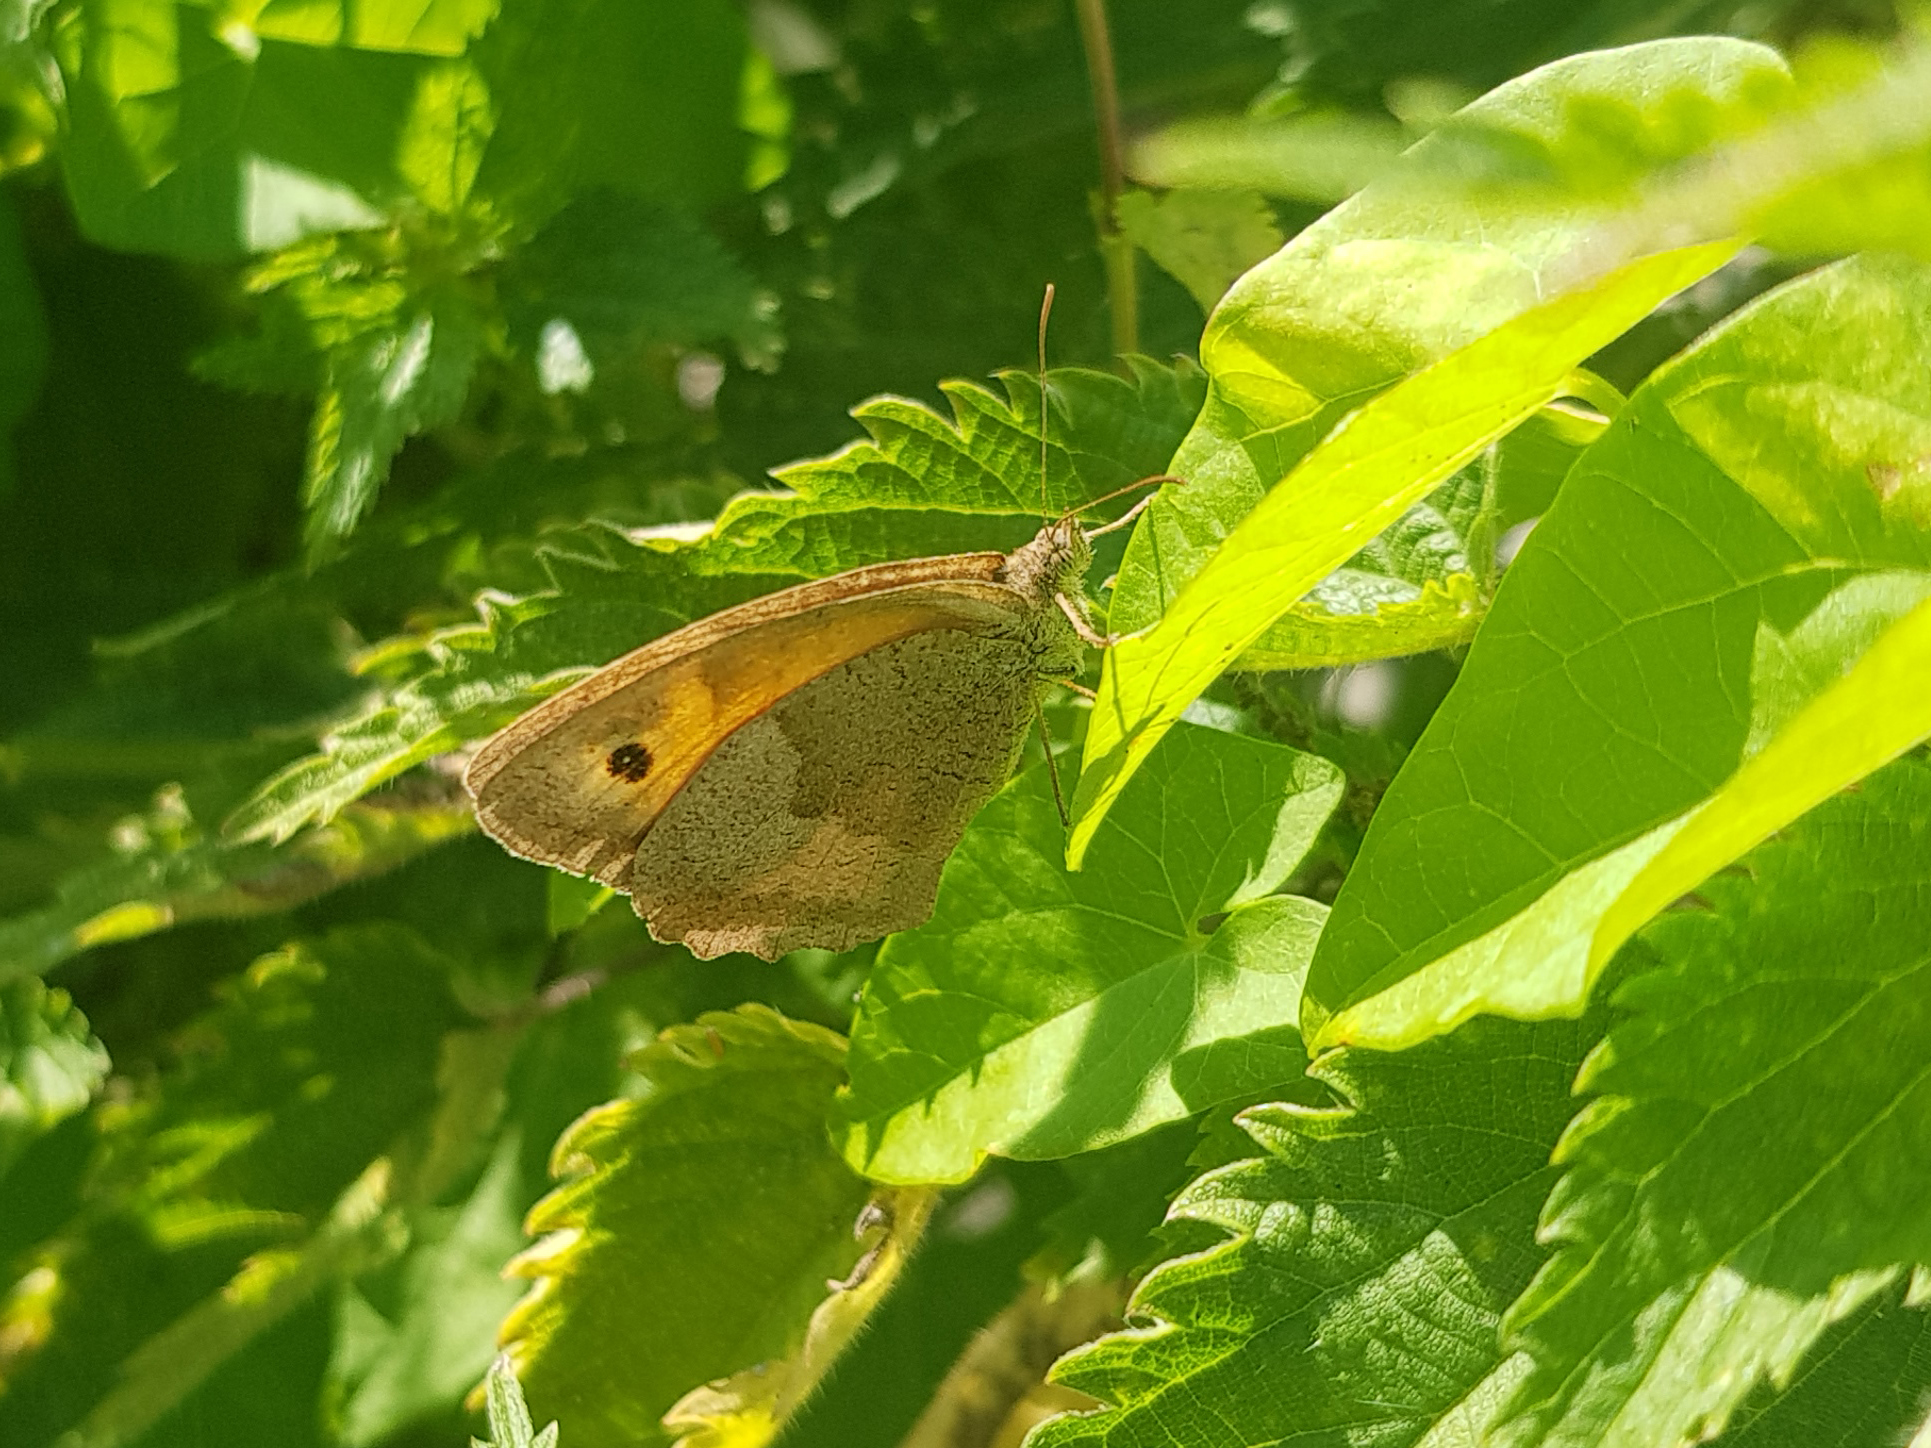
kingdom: Animalia
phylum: Arthropoda
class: Insecta
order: Lepidoptera
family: Nymphalidae
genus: Maniola
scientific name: Maniola jurtina
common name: Meadow brown
